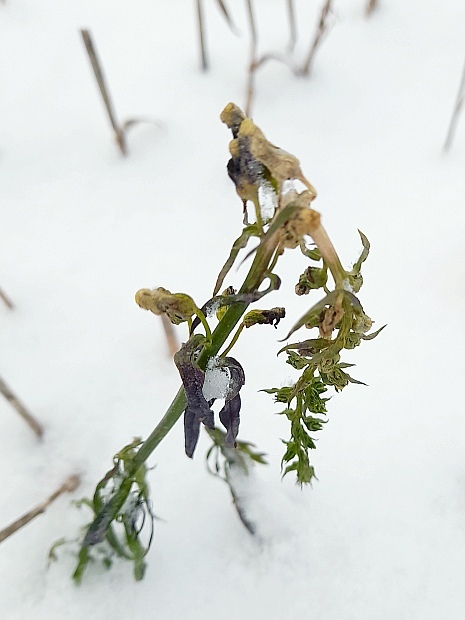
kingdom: Plantae
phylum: Tracheophyta
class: Magnoliopsida
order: Lamiales
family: Plantaginaceae
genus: Linaria
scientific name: Linaria vulgaris
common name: Butter and eggs
